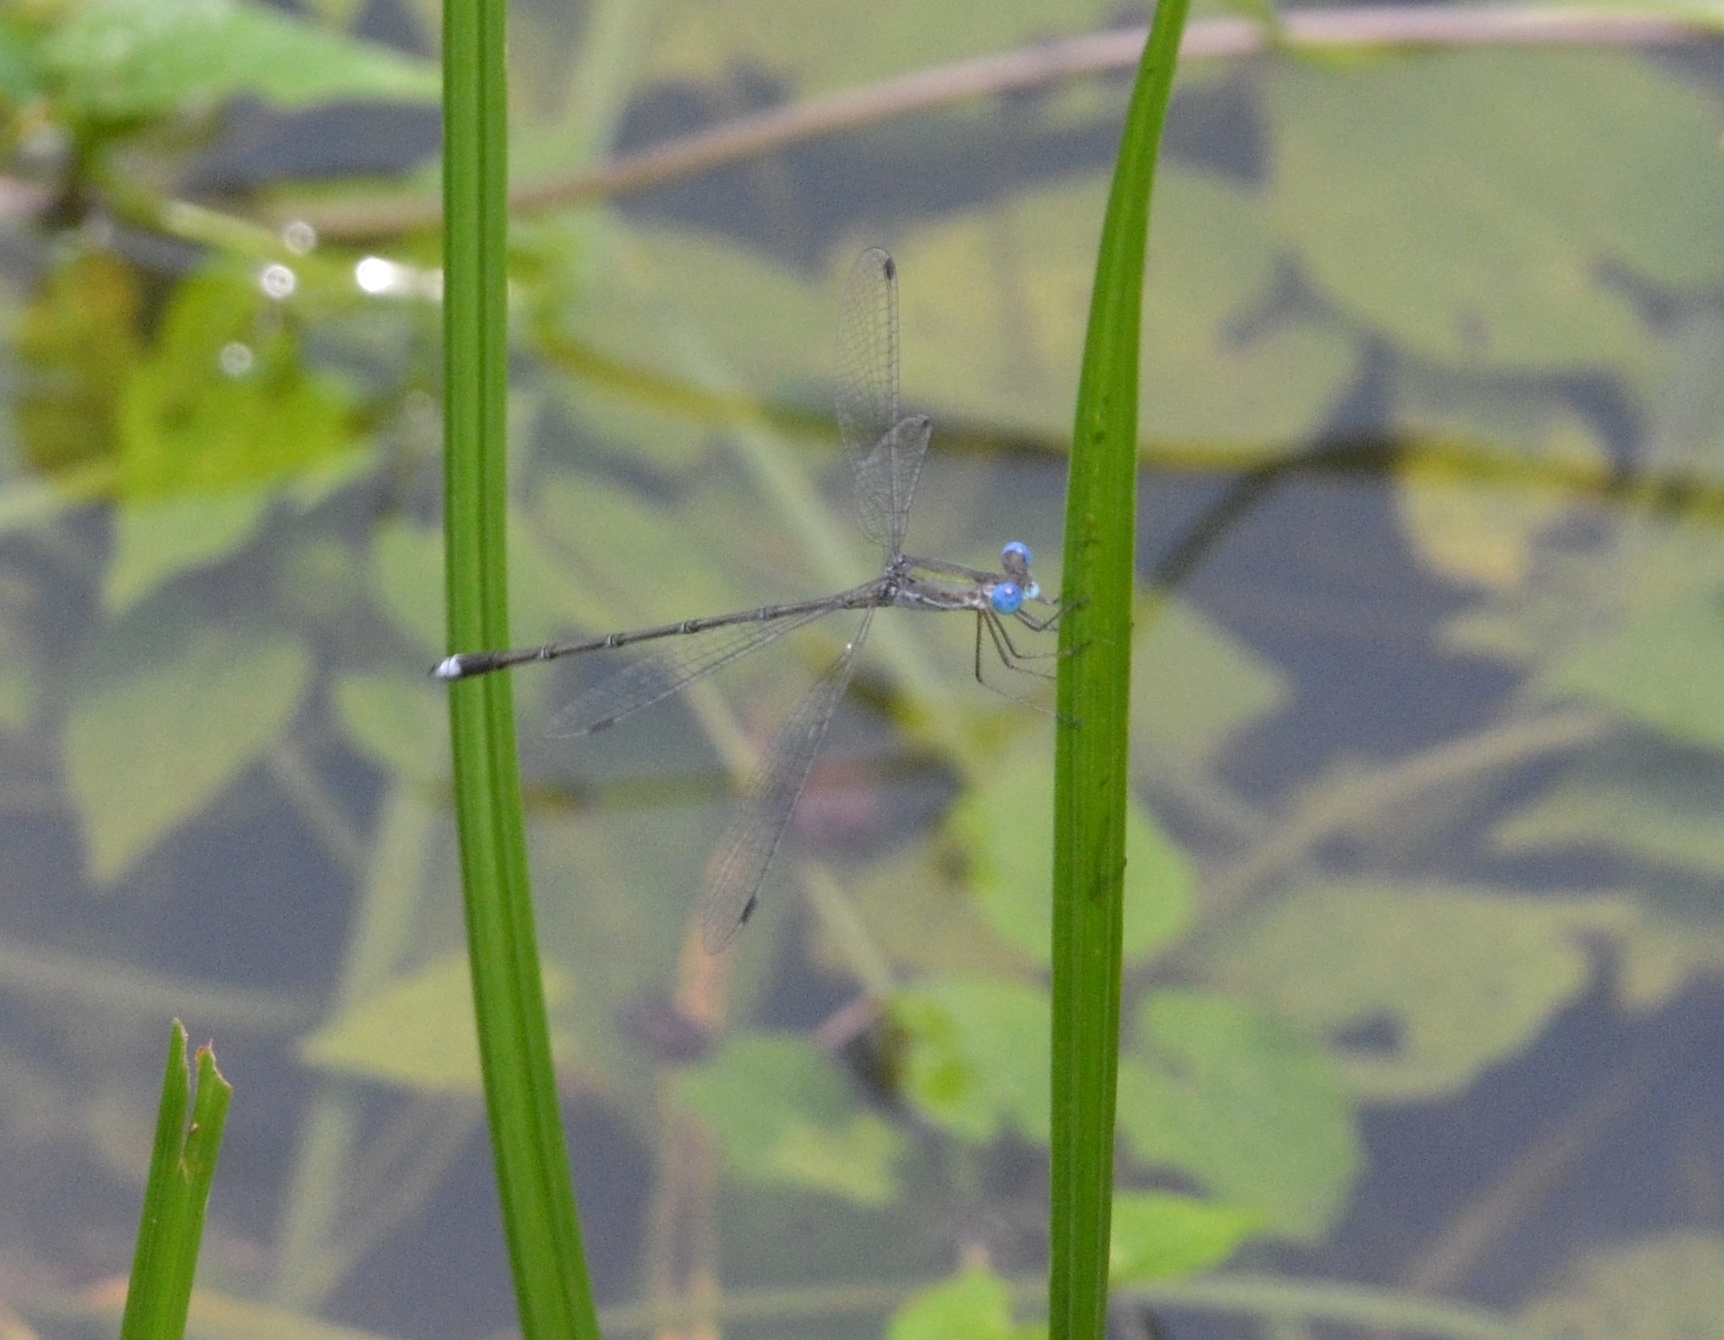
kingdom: Animalia
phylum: Arthropoda
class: Insecta
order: Odonata
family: Lestidae
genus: Lestes
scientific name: Lestes elatus
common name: Emerald spreadwing
